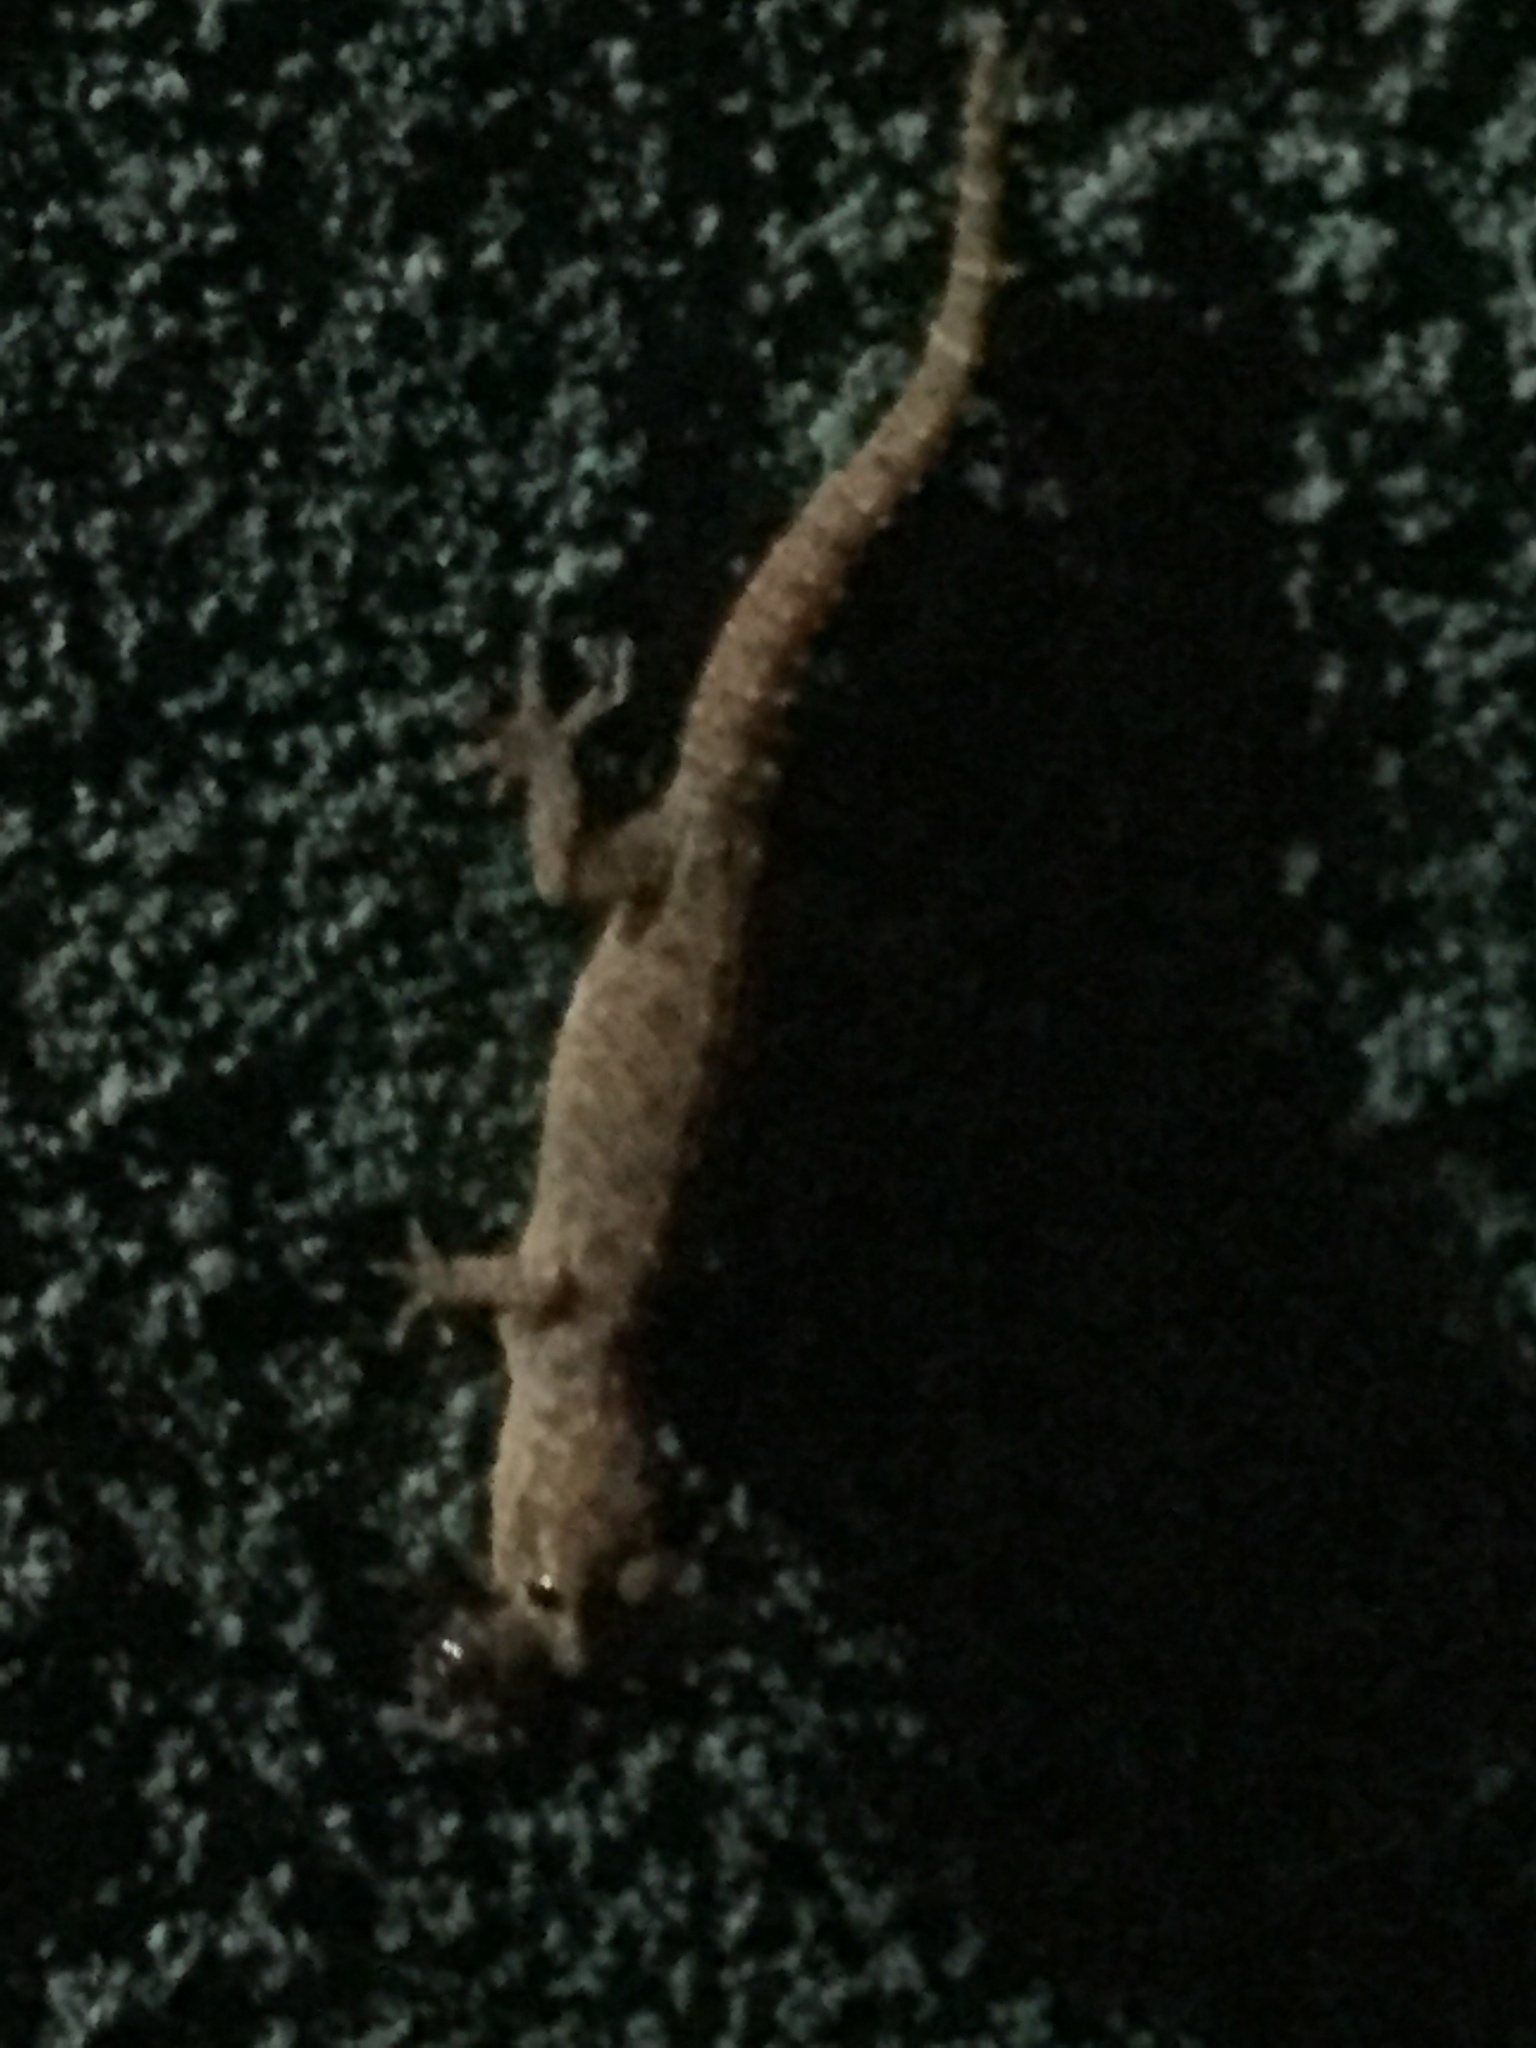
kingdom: Animalia
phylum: Chordata
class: Squamata
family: Gekkonidae
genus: Hemidactylus
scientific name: Hemidactylus parvimaculatus
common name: Spotted house gecko
